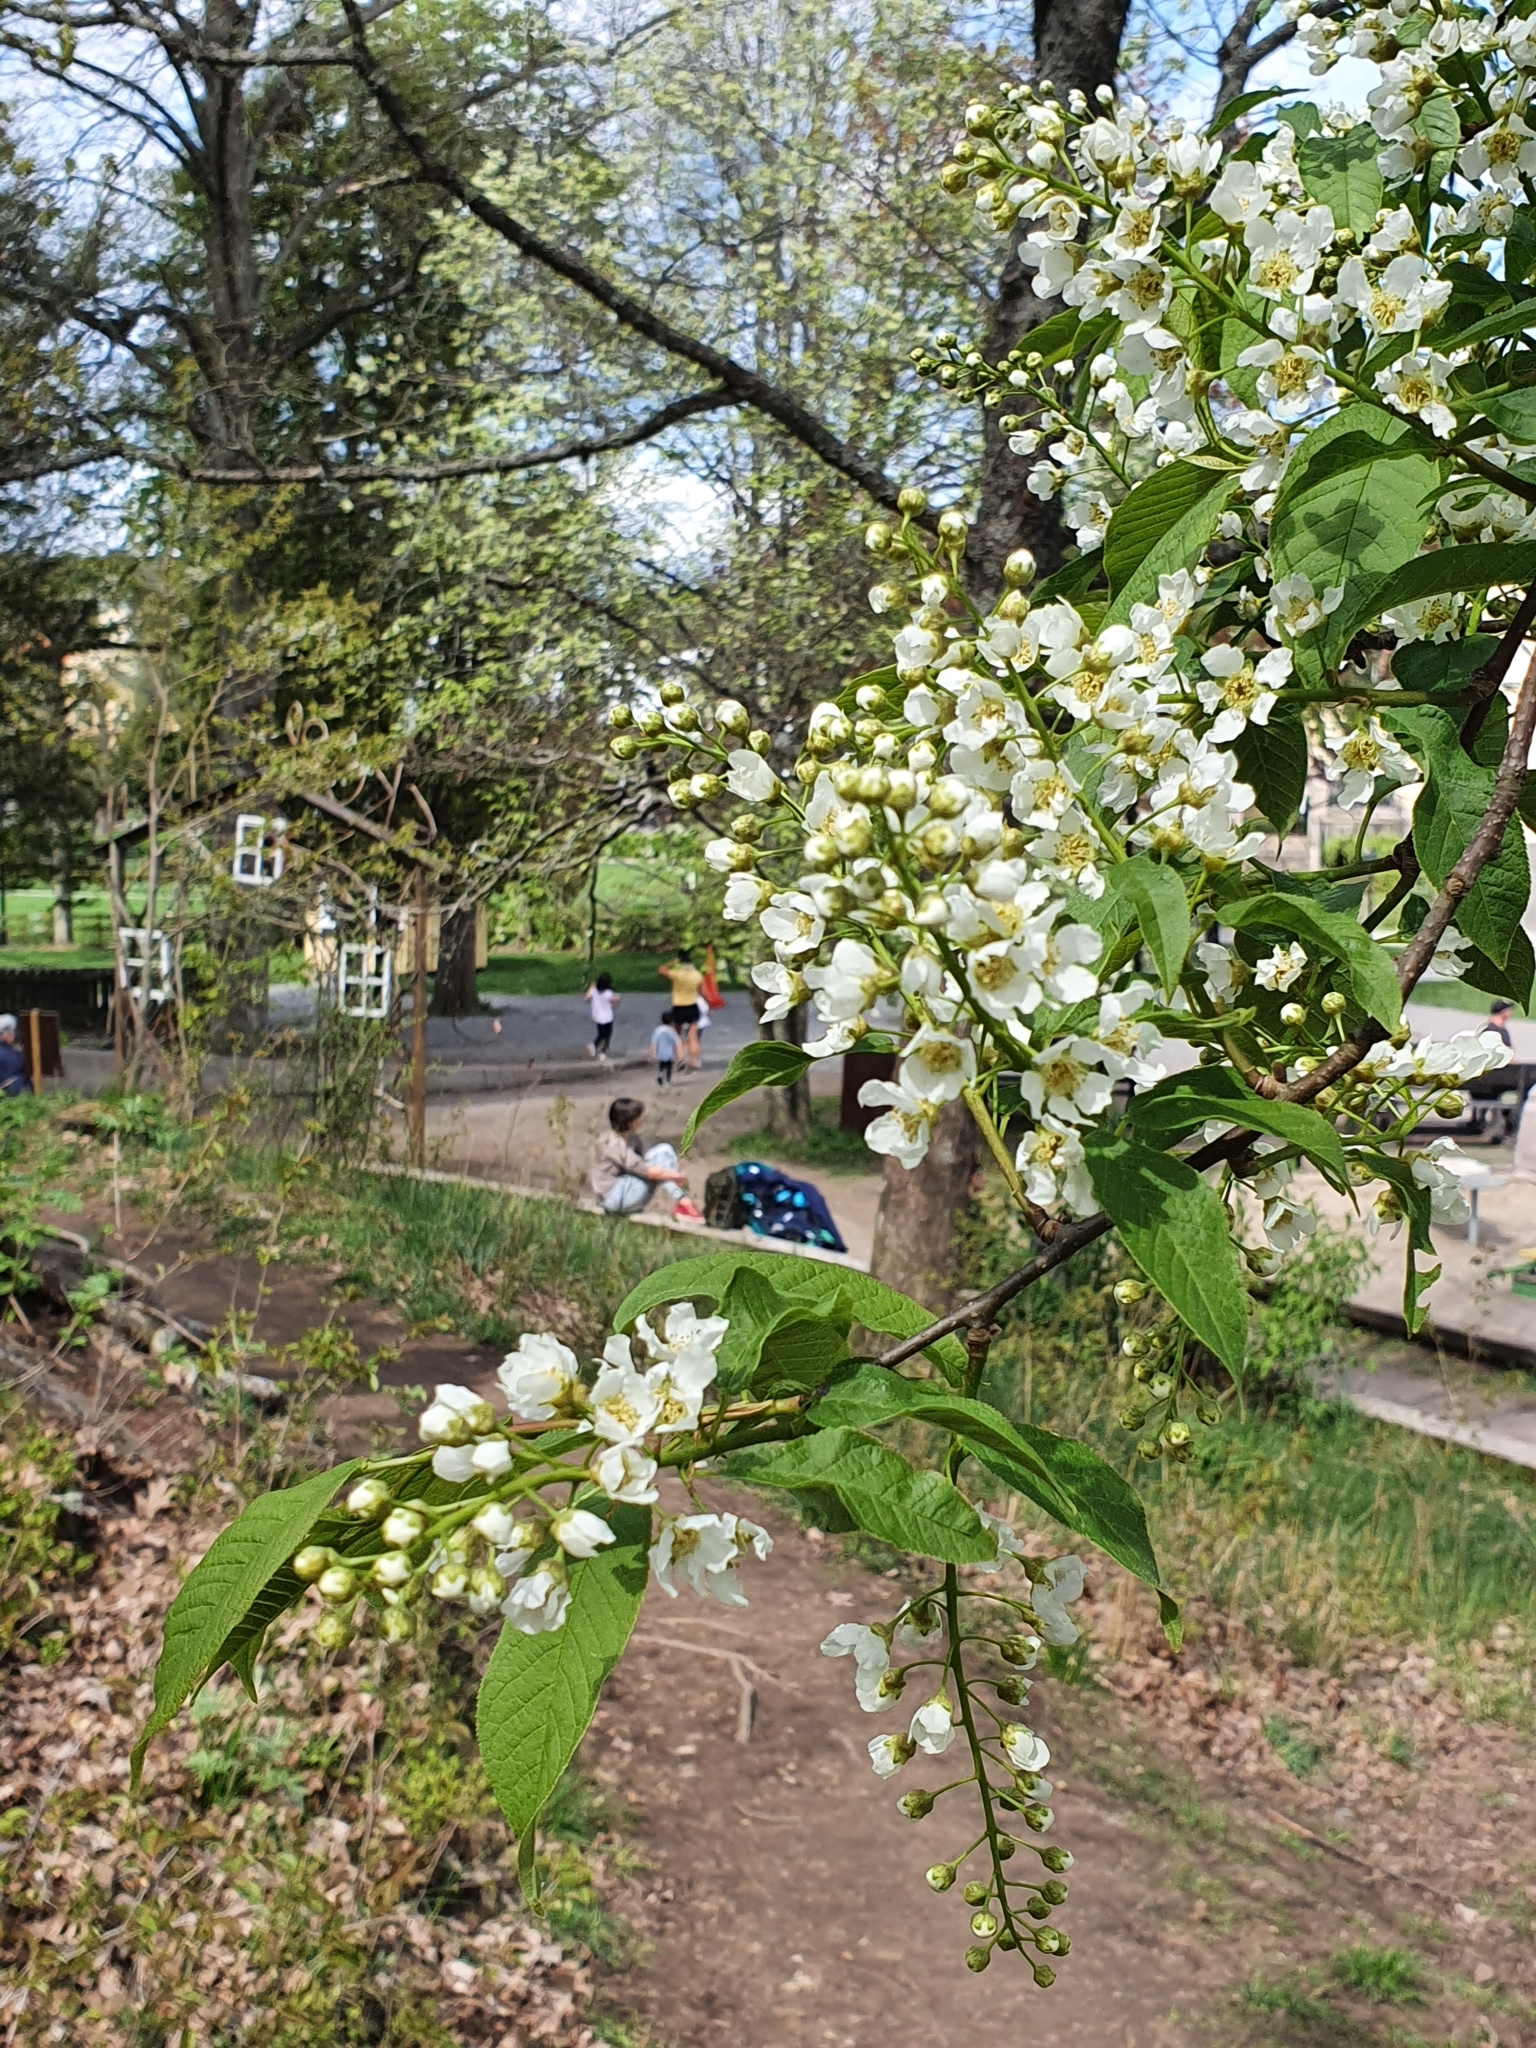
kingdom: Plantae
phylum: Tracheophyta
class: Magnoliopsida
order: Rosales
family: Rosaceae
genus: Prunus
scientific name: Prunus padus
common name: Bird cherry
